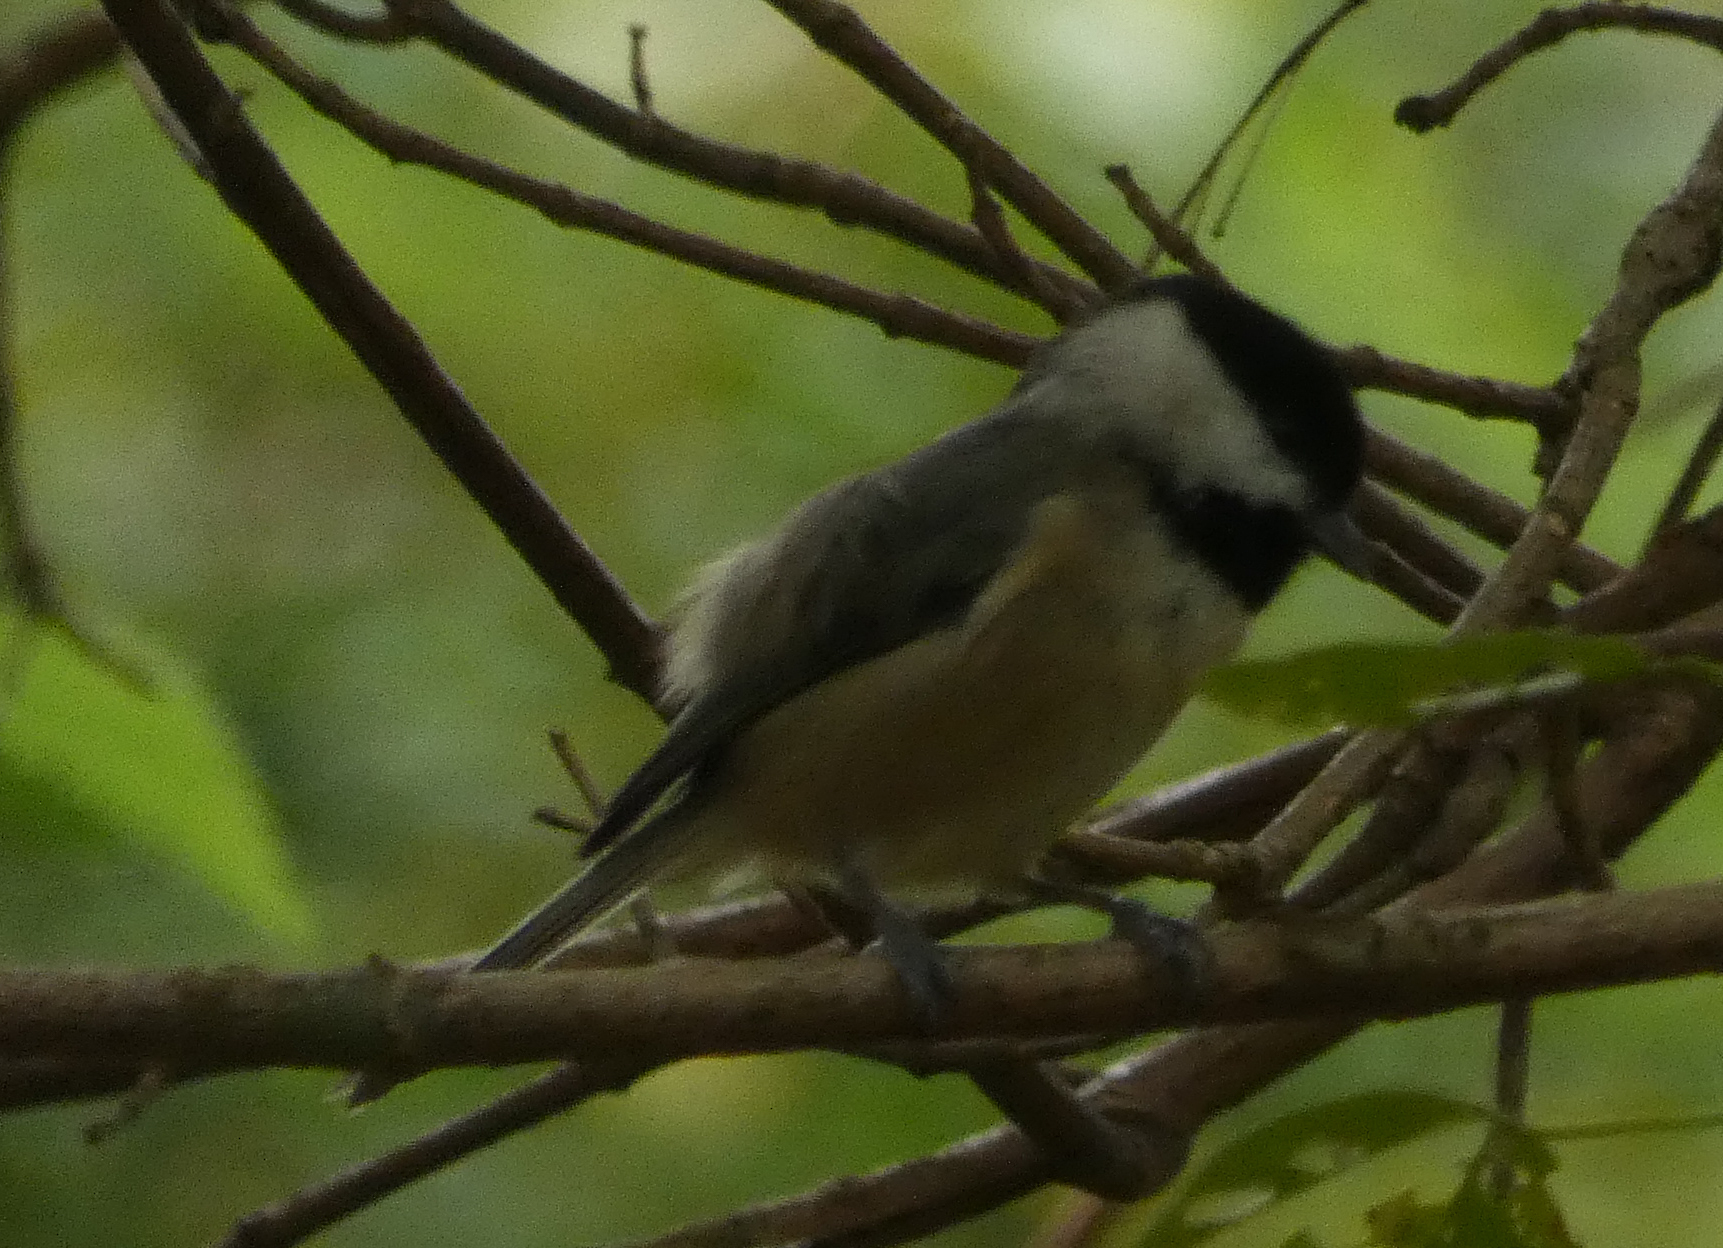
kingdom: Animalia
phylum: Chordata
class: Aves
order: Passeriformes
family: Paridae
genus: Poecile
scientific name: Poecile carolinensis
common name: Carolina chickadee
